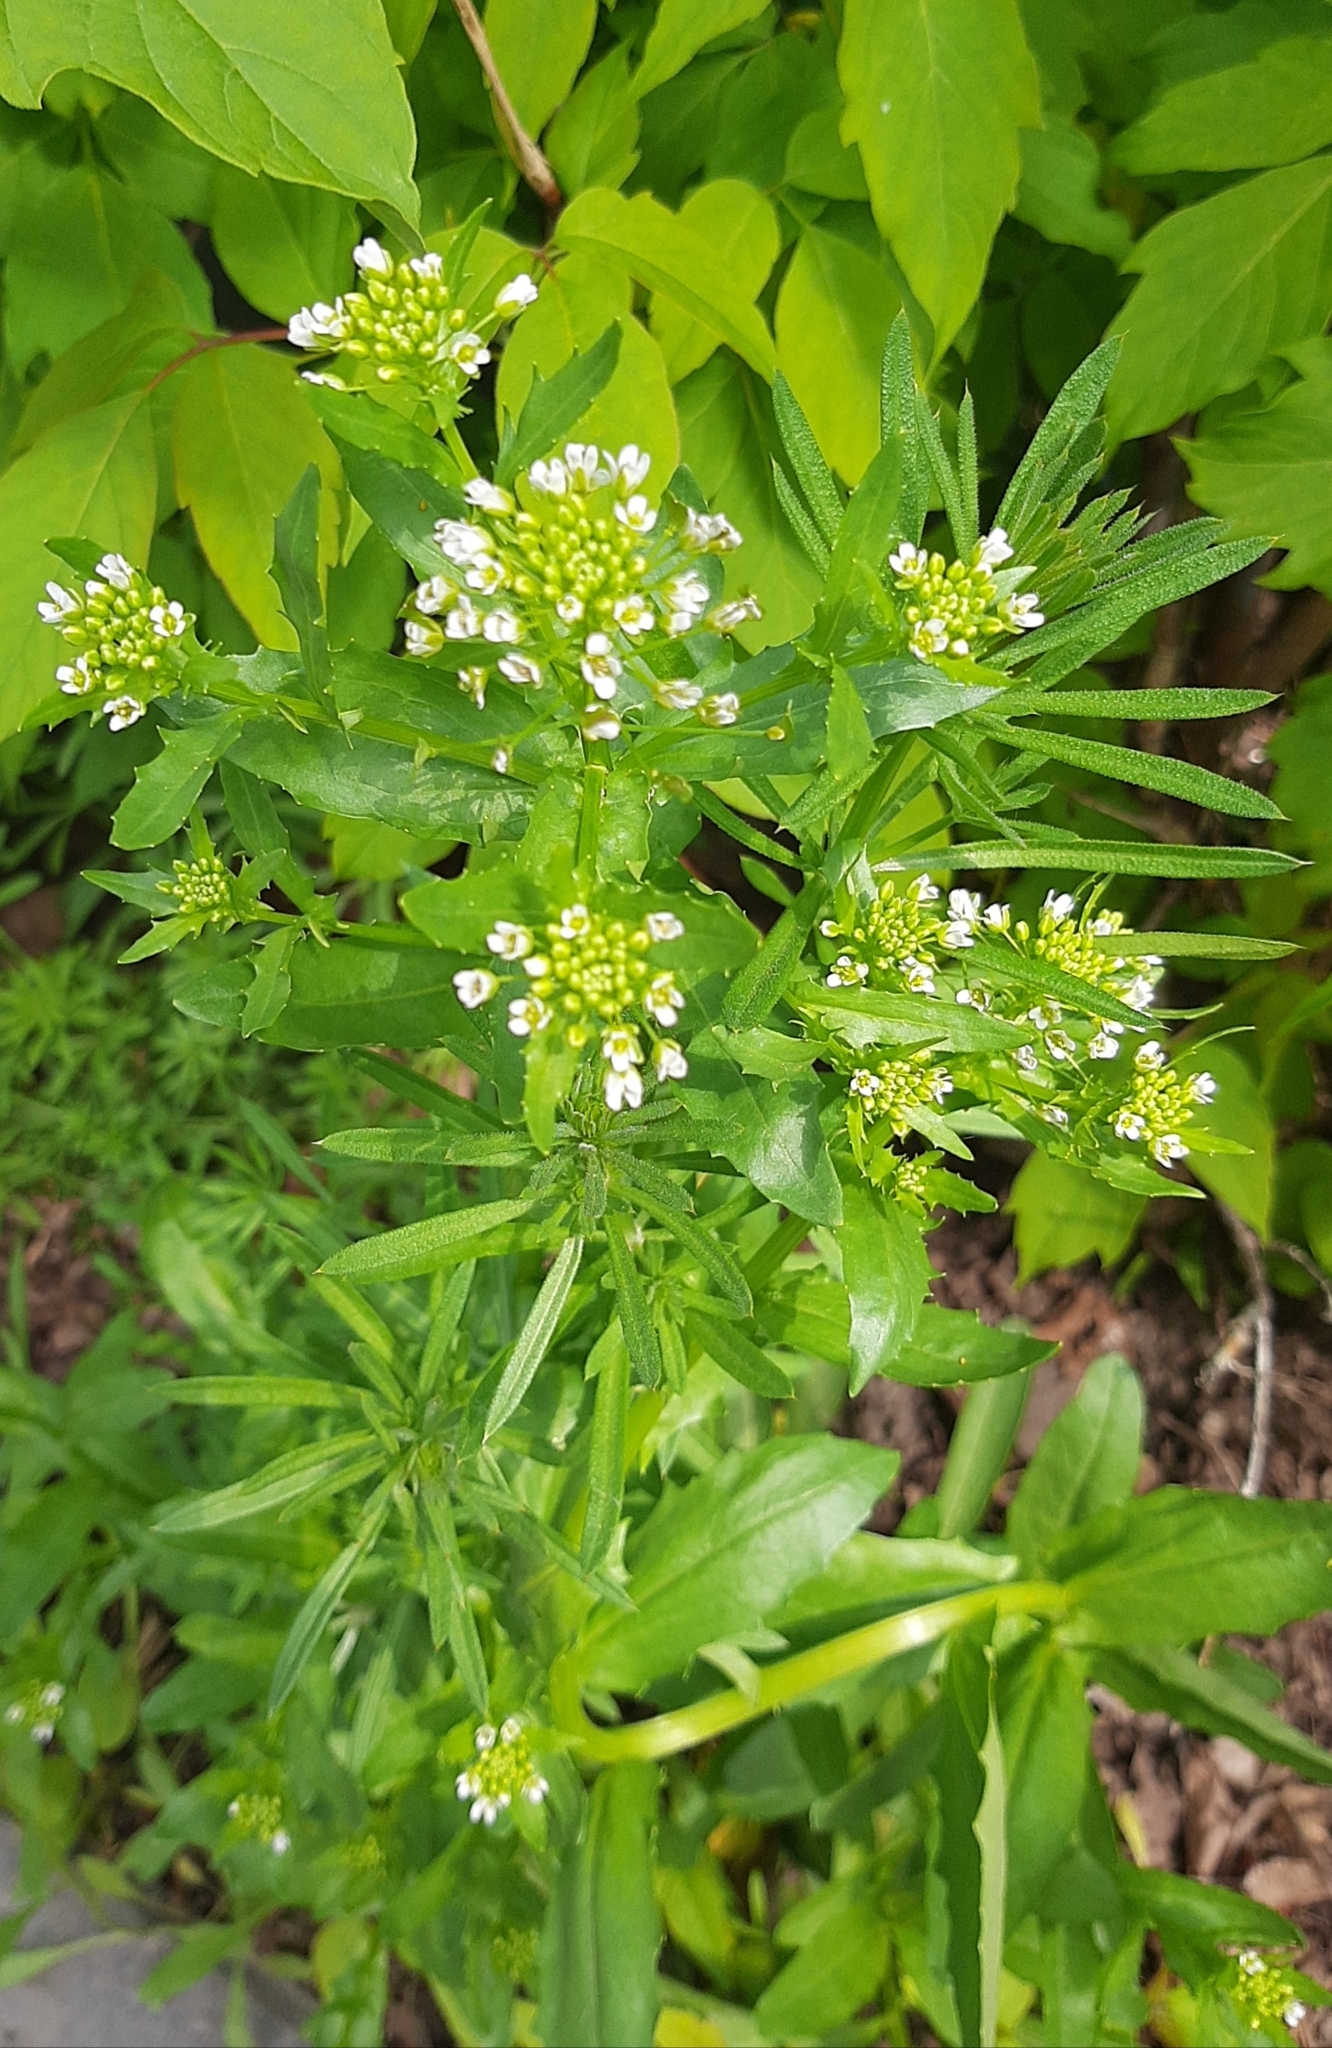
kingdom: Plantae
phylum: Tracheophyta
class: Magnoliopsida
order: Brassicales
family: Brassicaceae
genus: Thlaspi
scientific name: Thlaspi arvense
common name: Field pennycress
